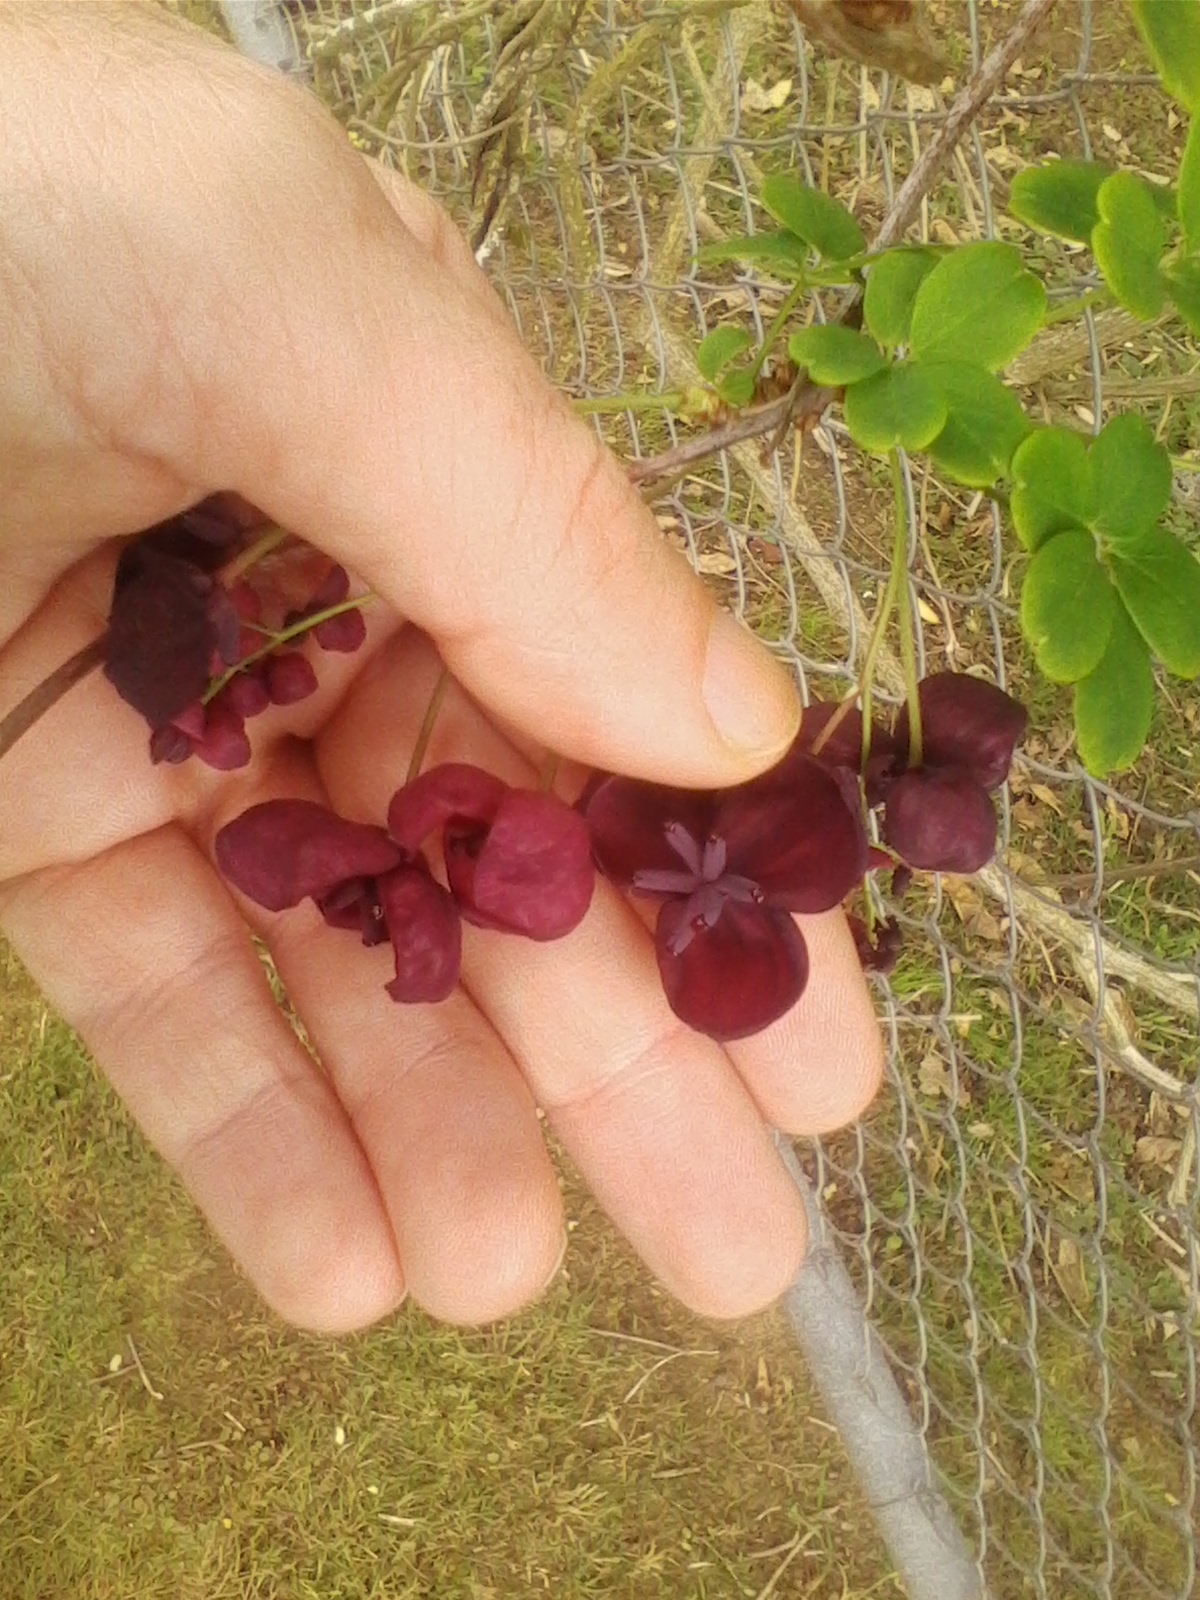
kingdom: Plantae
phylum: Tracheophyta
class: Magnoliopsida
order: Ranunculales
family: Lardizabalaceae
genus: Akebia
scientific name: Akebia quinata
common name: Five-leaf akebia
